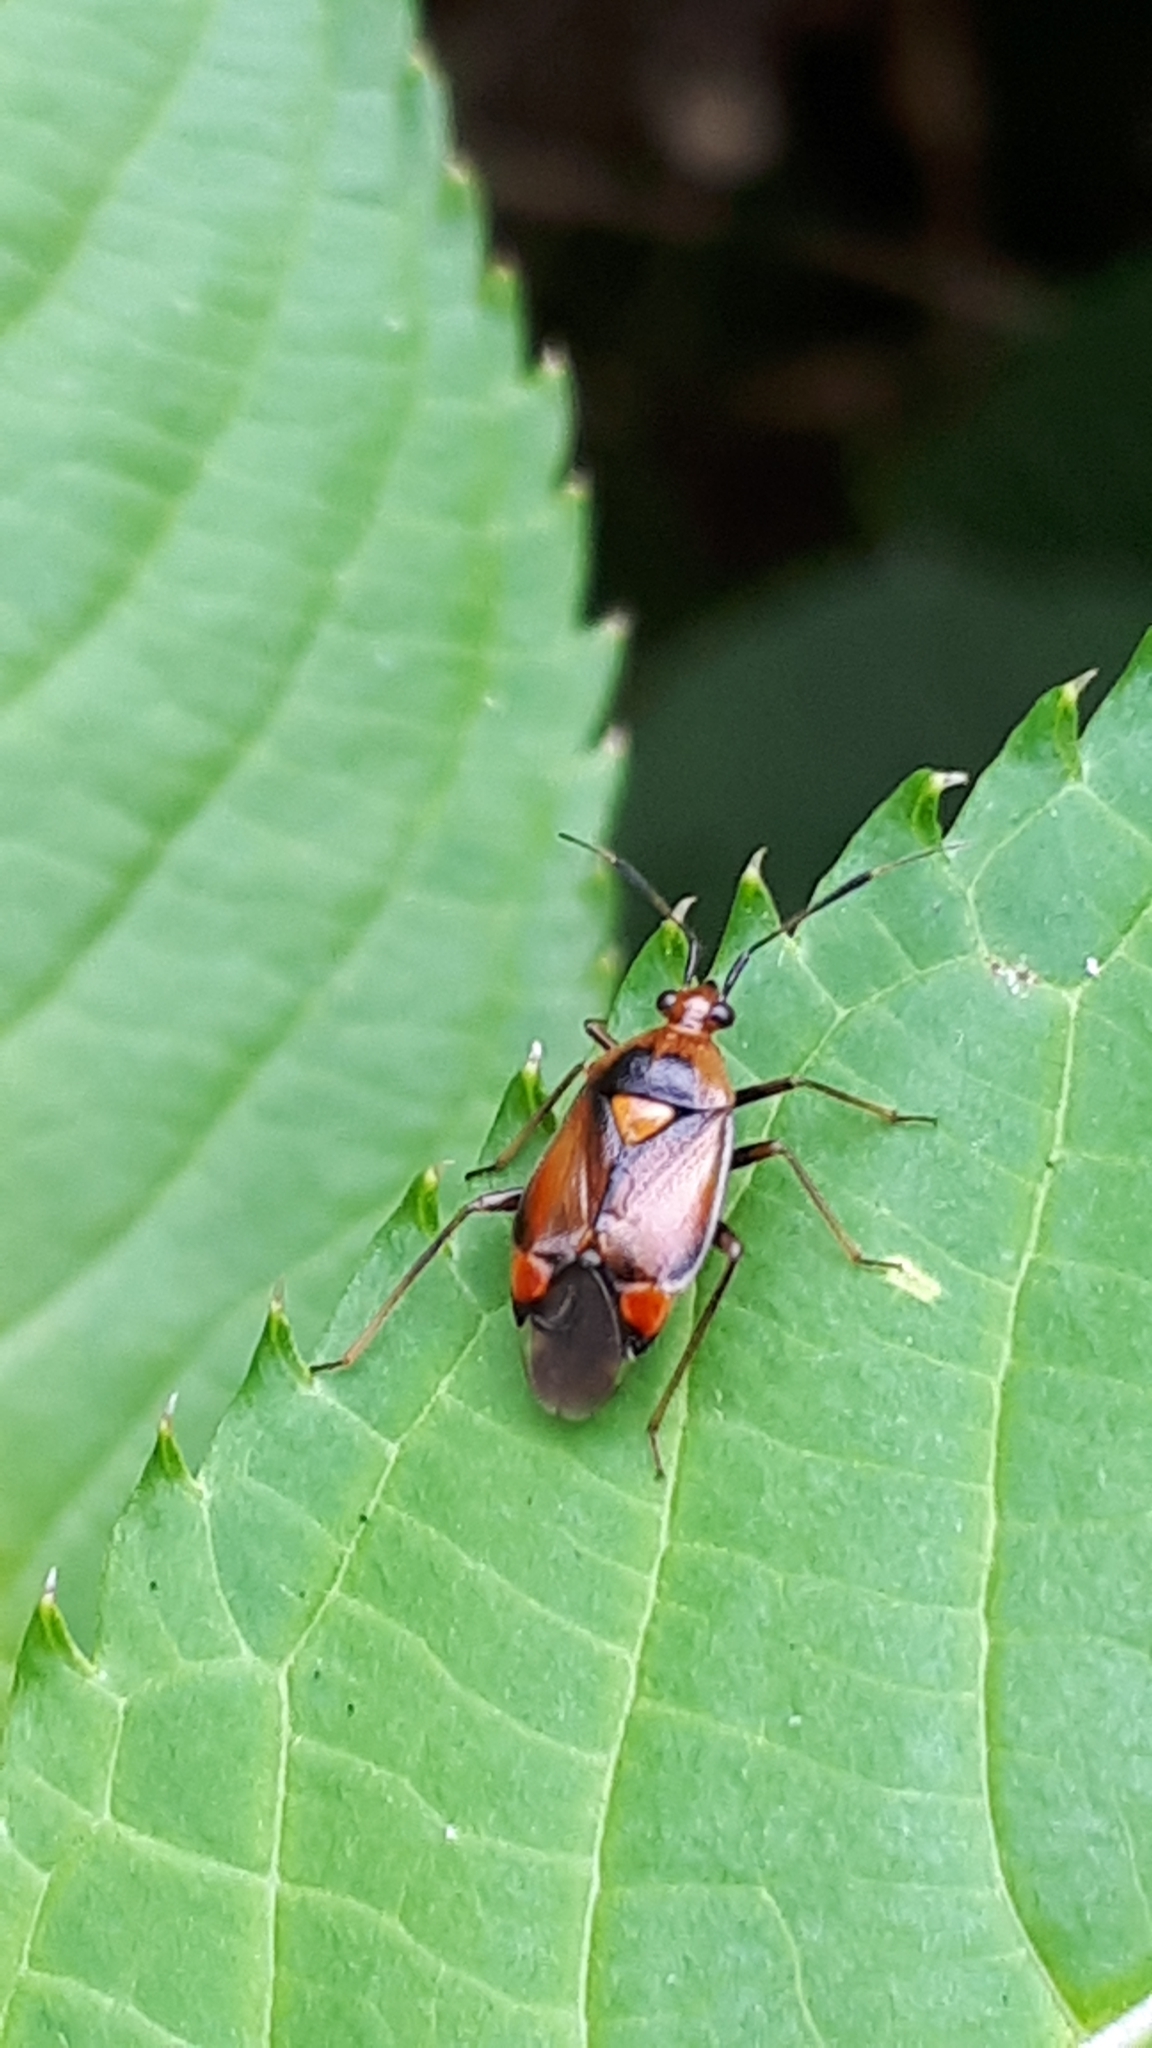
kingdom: Animalia
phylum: Arthropoda
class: Insecta
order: Hemiptera
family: Miridae
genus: Deraeocoris
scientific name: Deraeocoris ruber
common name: Plant bug
